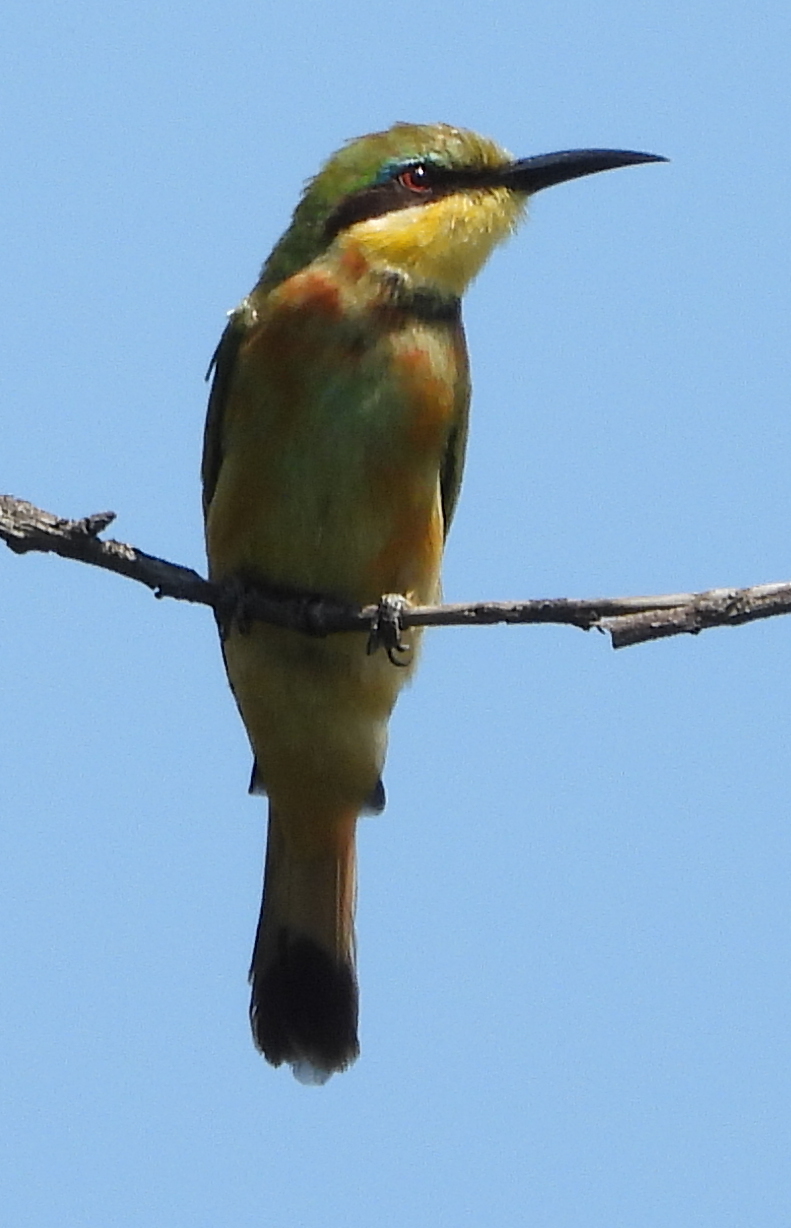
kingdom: Animalia
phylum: Chordata
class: Aves
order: Coraciiformes
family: Meropidae
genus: Merops
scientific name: Merops pusillus
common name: Little bee-eater
